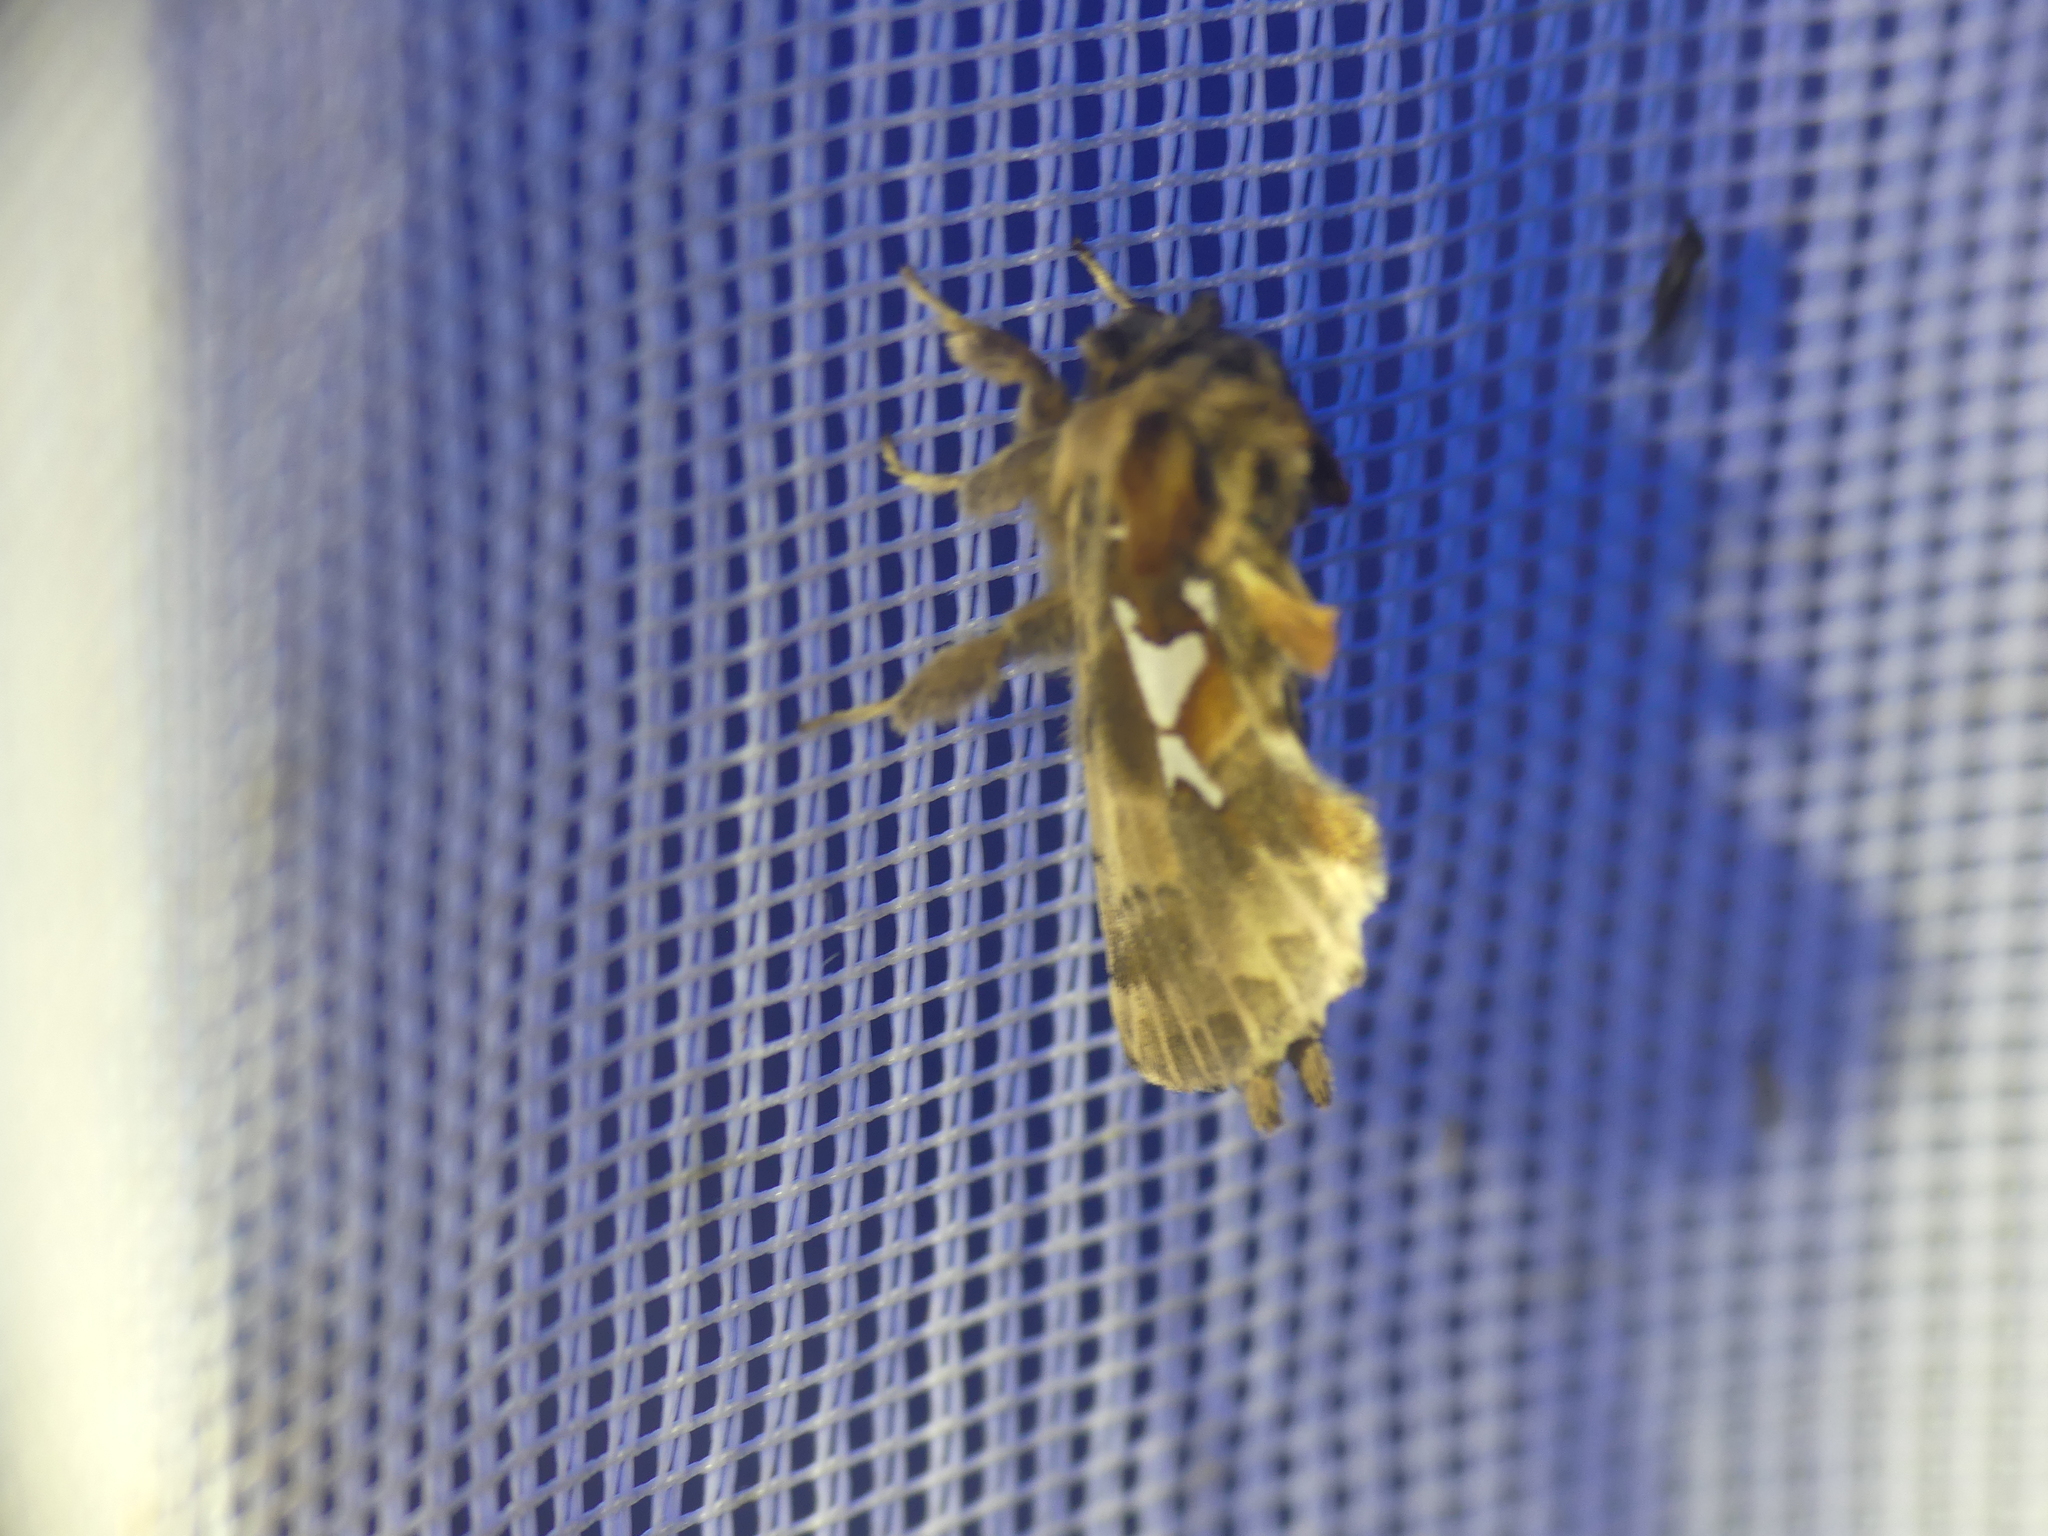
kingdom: Animalia
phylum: Arthropoda
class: Insecta
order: Lepidoptera
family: Notodontidae
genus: Spatalia
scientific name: Spatalia argentina
